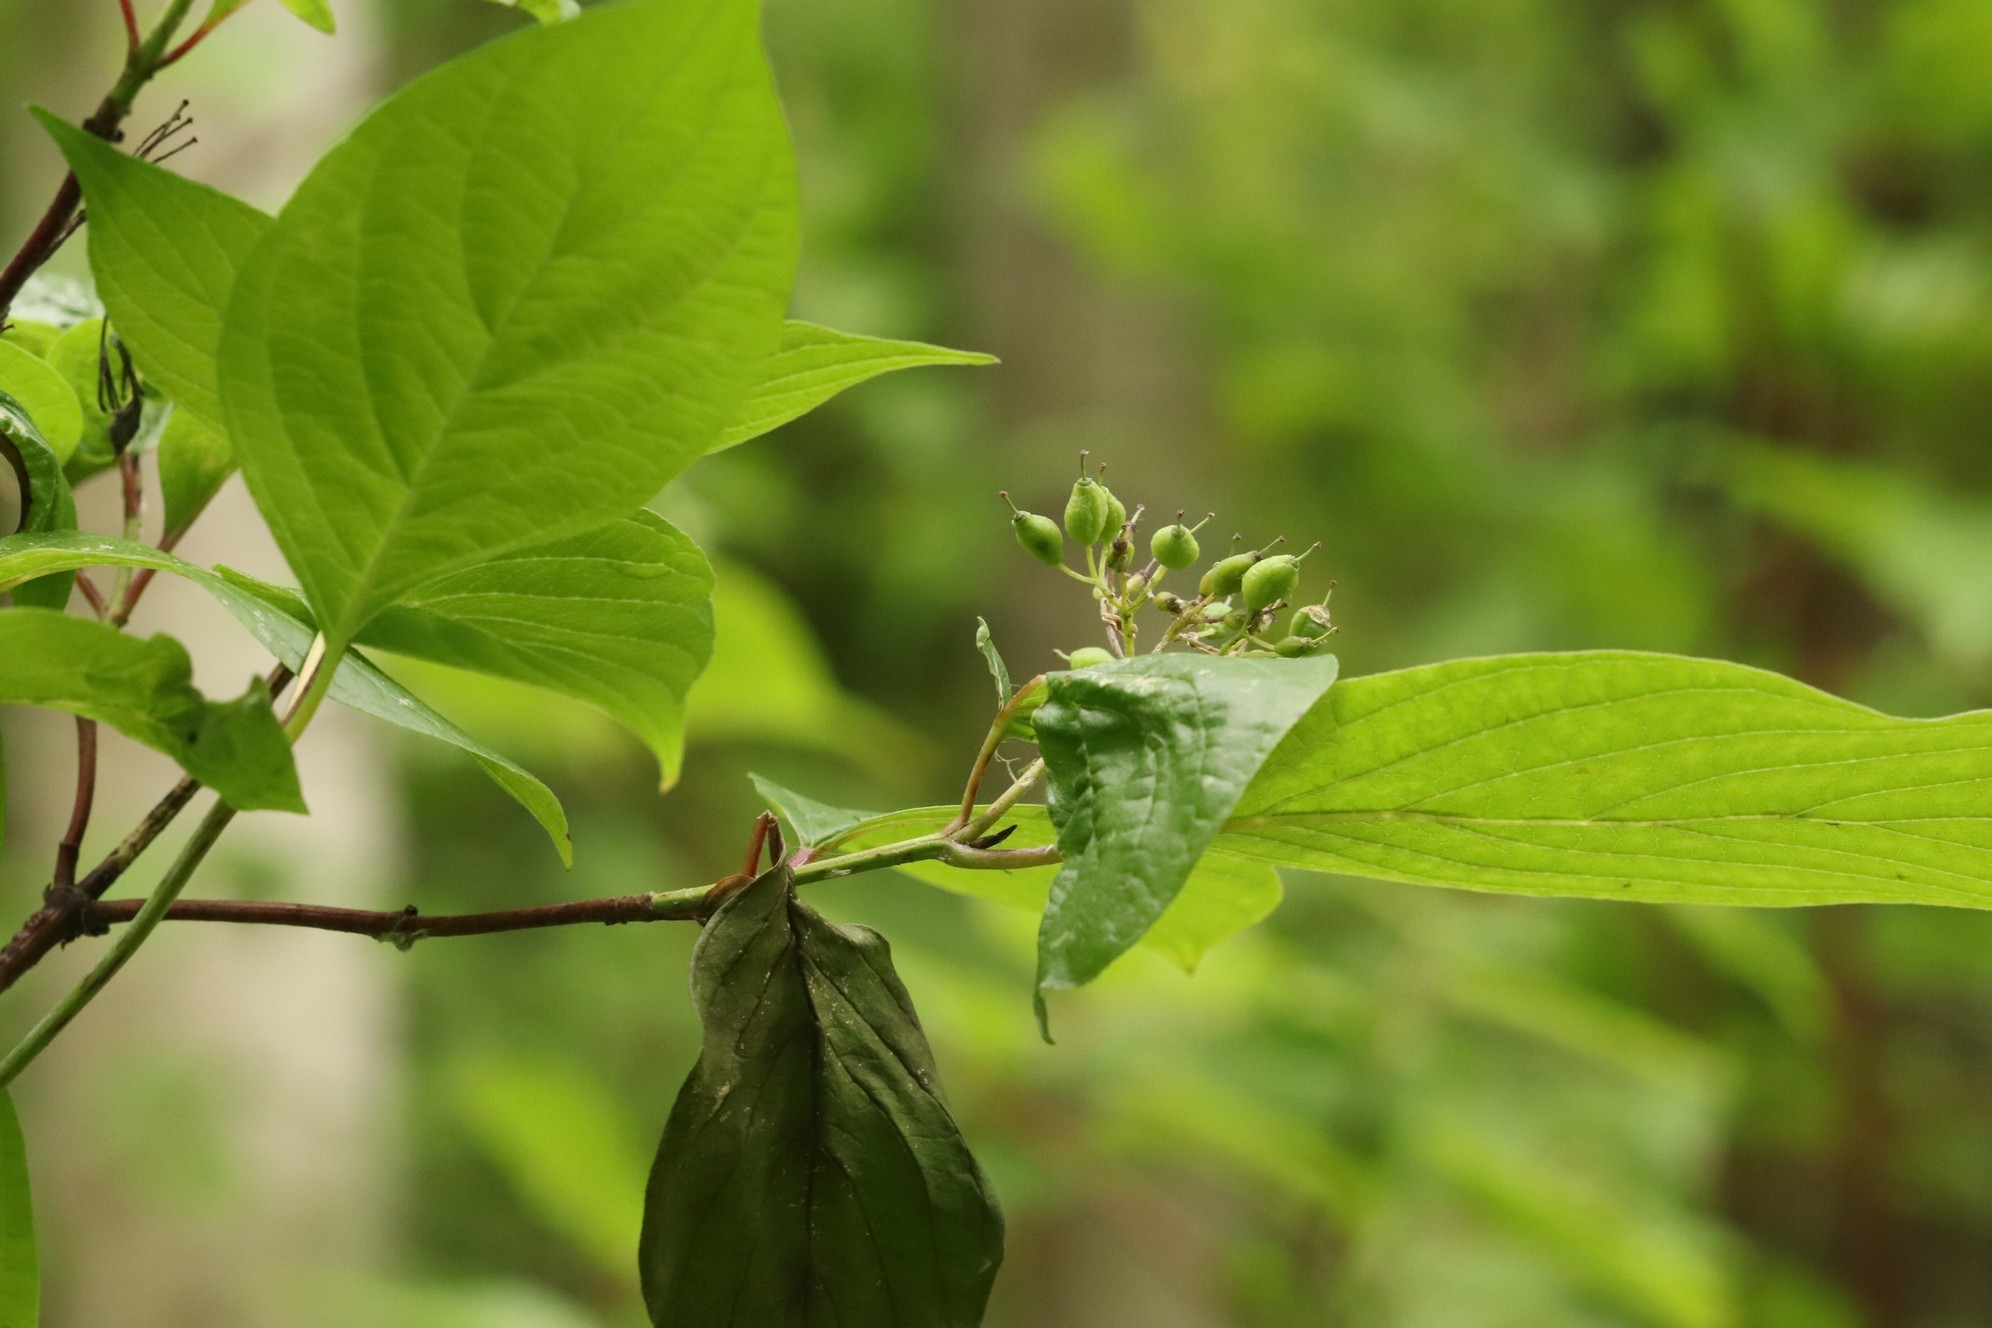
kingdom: Plantae
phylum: Tracheophyta
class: Magnoliopsida
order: Cornales
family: Cornaceae
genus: Cornus
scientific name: Cornus alba
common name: White dogwood
